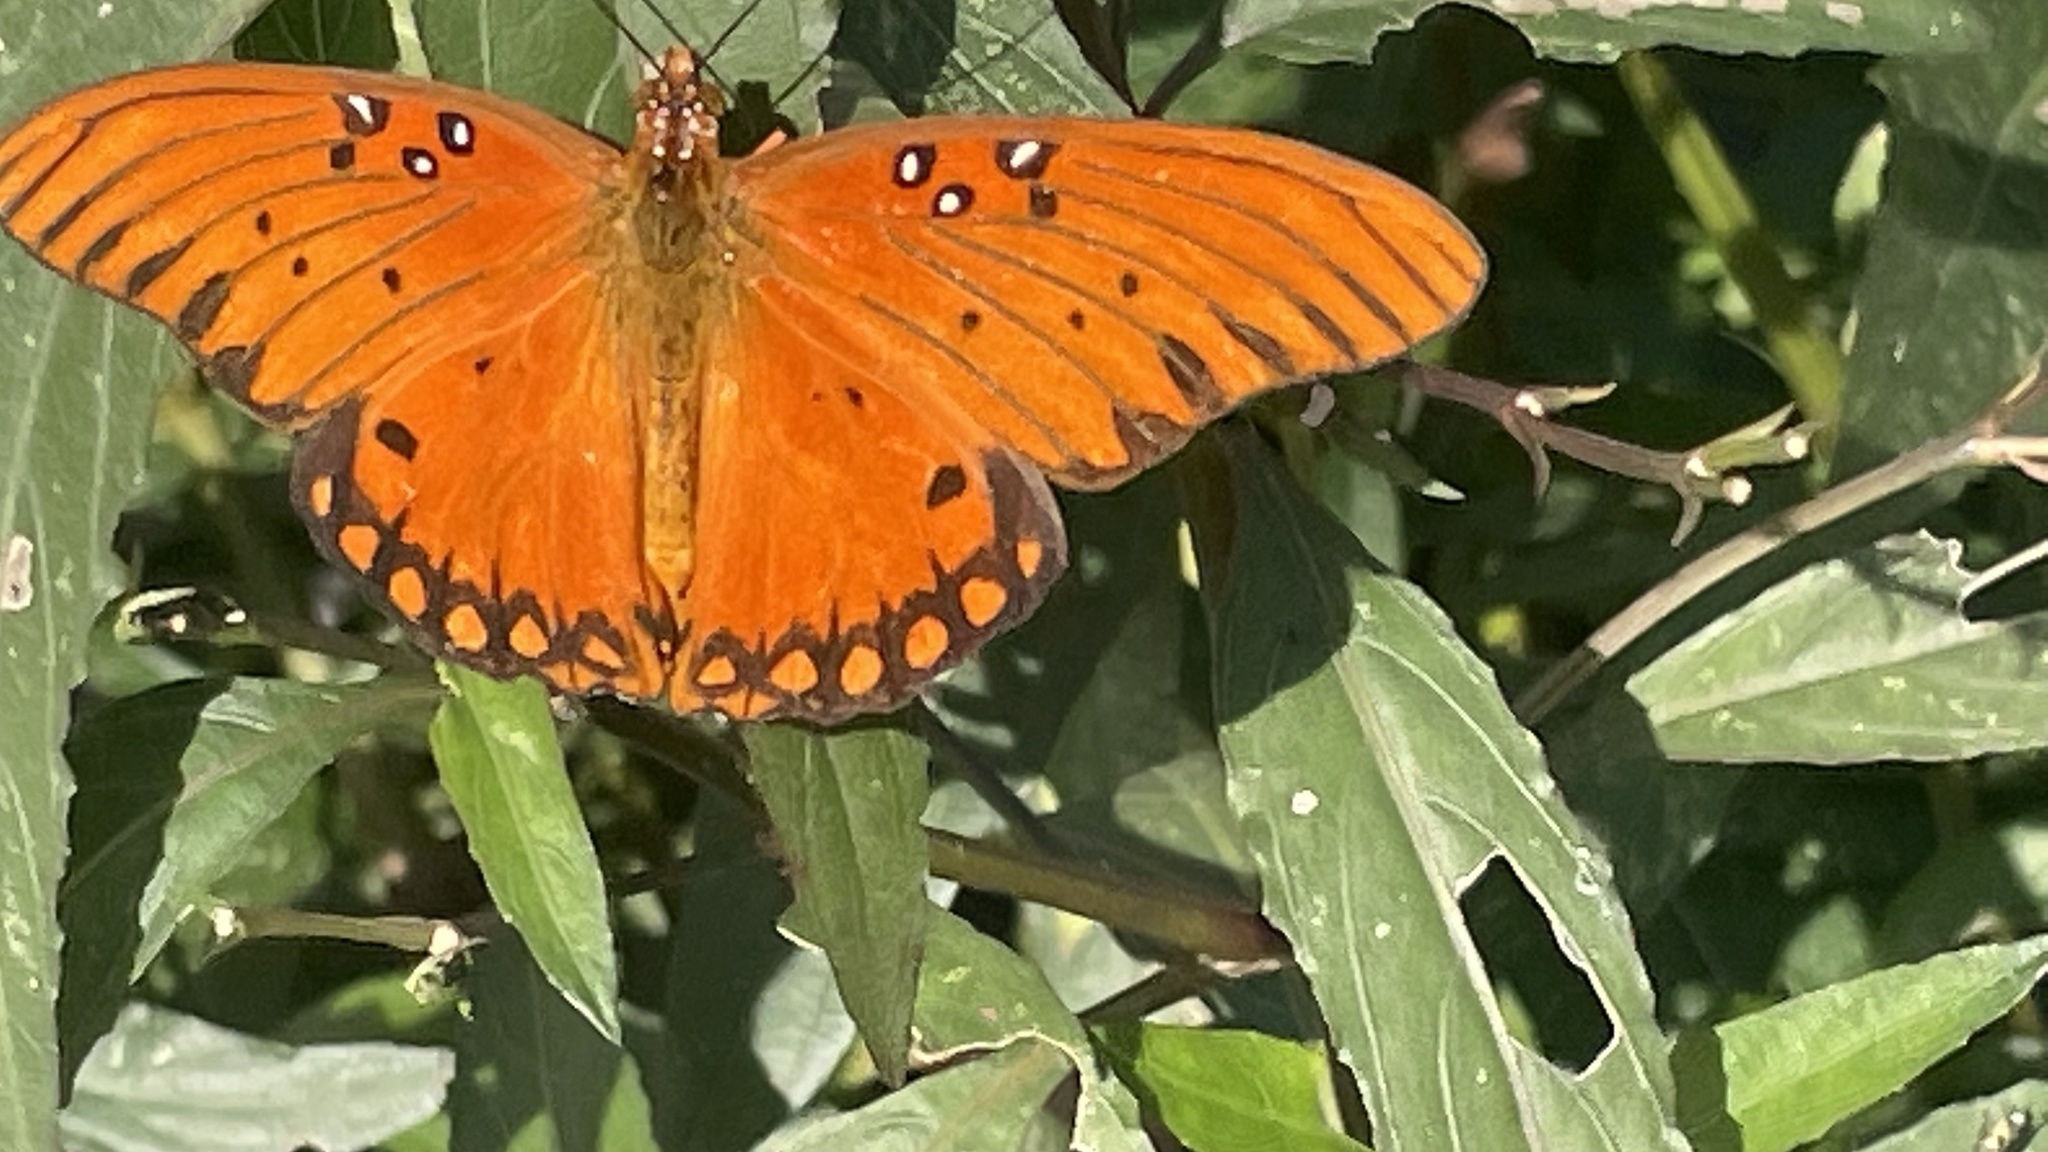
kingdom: Animalia
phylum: Arthropoda
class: Insecta
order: Lepidoptera
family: Nymphalidae
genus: Dione
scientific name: Dione vanillae
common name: Gulf fritillary
